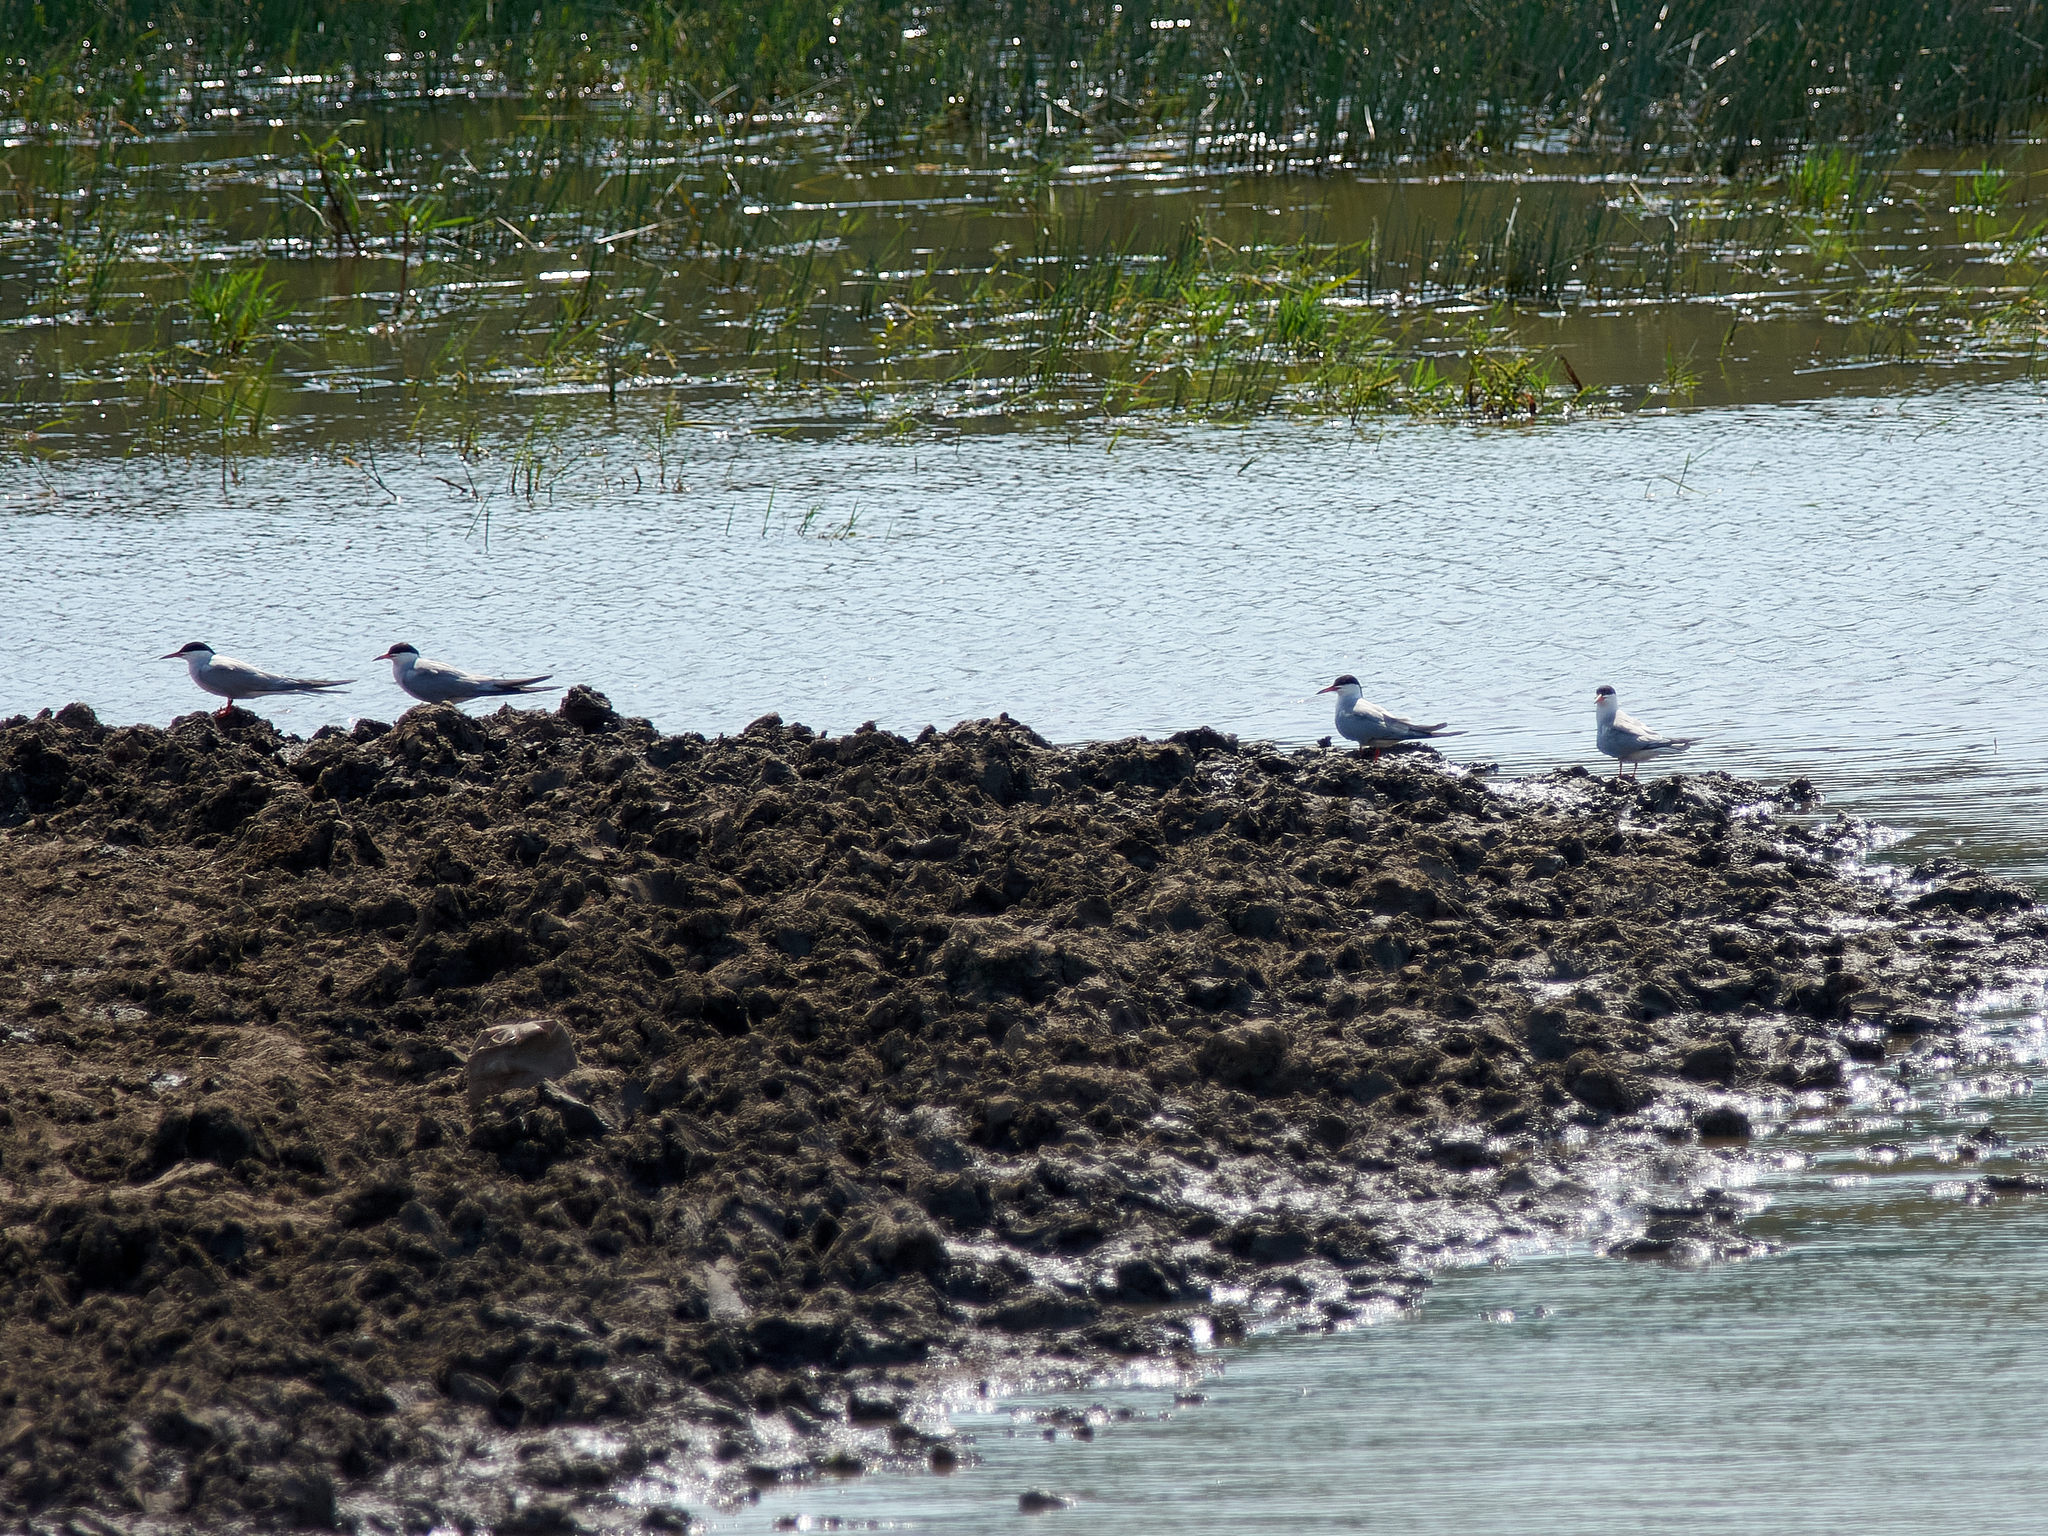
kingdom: Animalia
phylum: Chordata
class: Aves
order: Charadriiformes
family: Laridae
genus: Sterna
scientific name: Sterna hirundo
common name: Common tern
